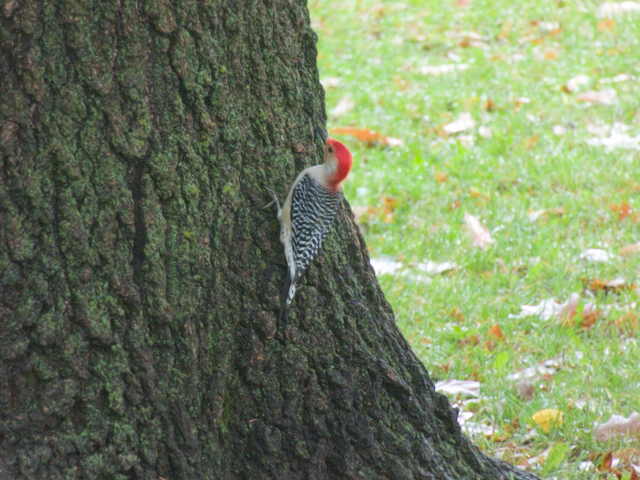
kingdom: Animalia
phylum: Chordata
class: Aves
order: Piciformes
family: Picidae
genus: Melanerpes
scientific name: Melanerpes carolinus
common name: Red-bellied woodpecker
